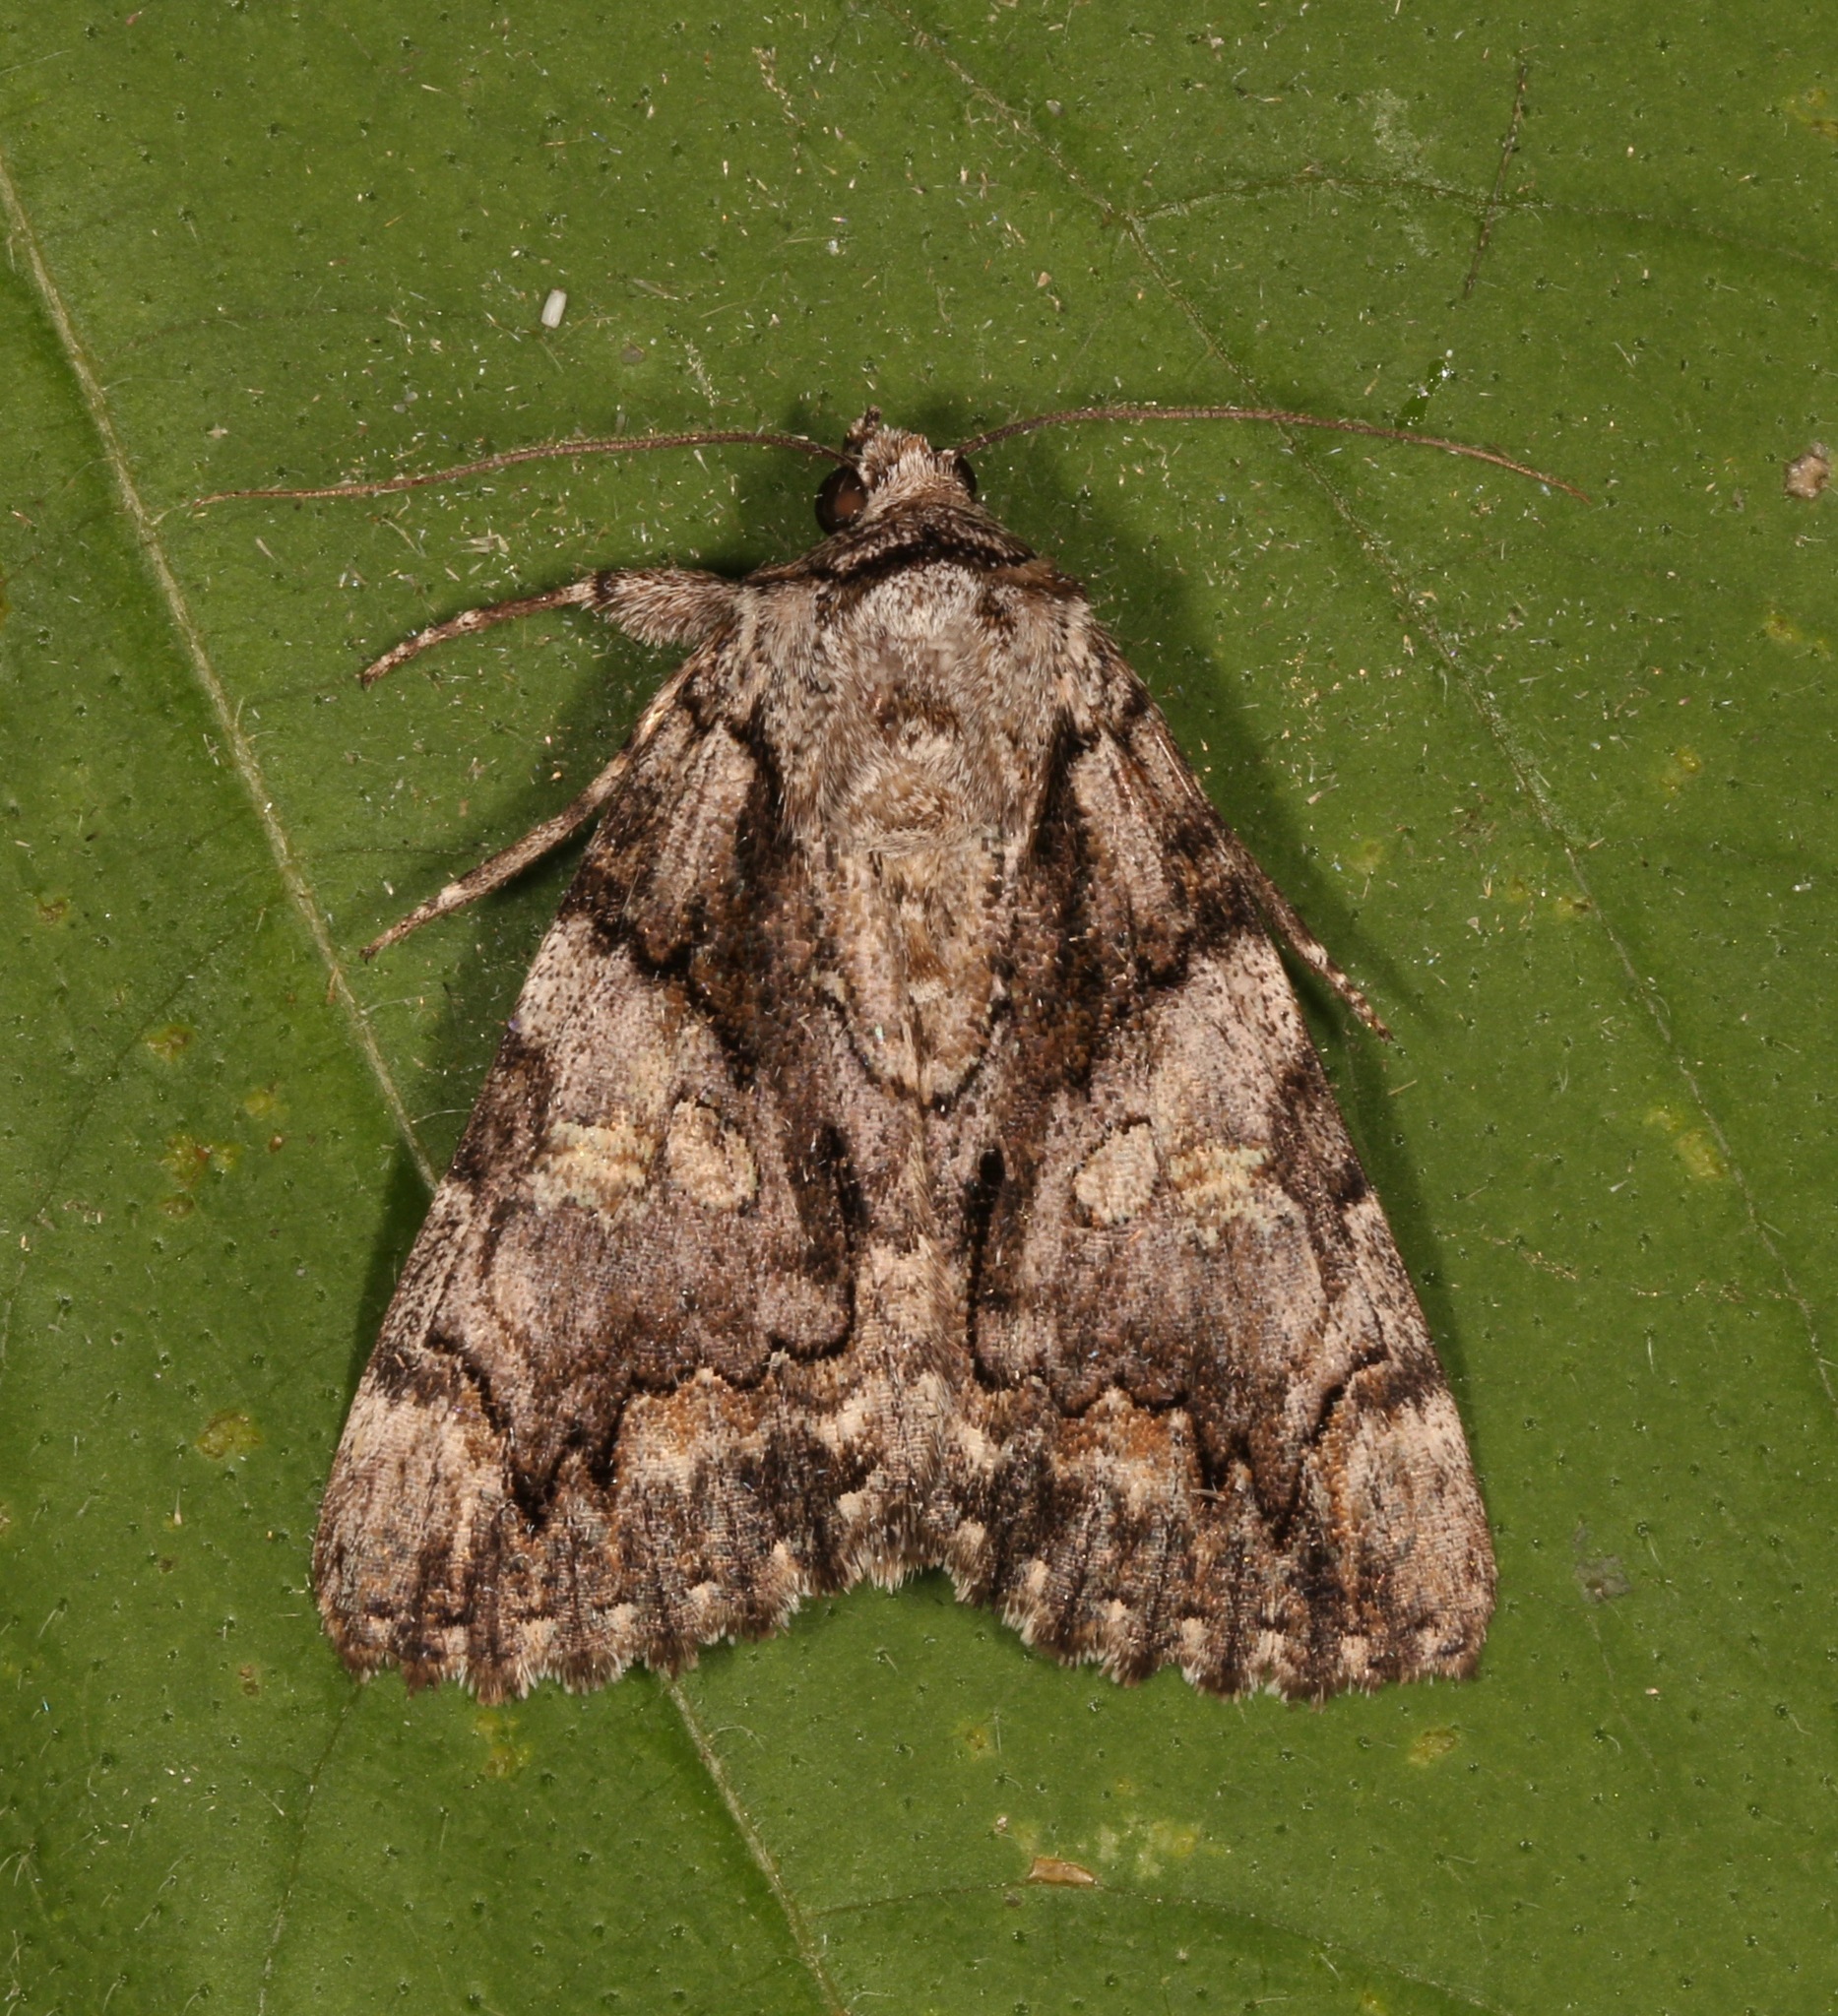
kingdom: Animalia
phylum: Arthropoda
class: Insecta
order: Lepidoptera
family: Erebidae
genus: Catocala
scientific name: Catocala verrilliana
